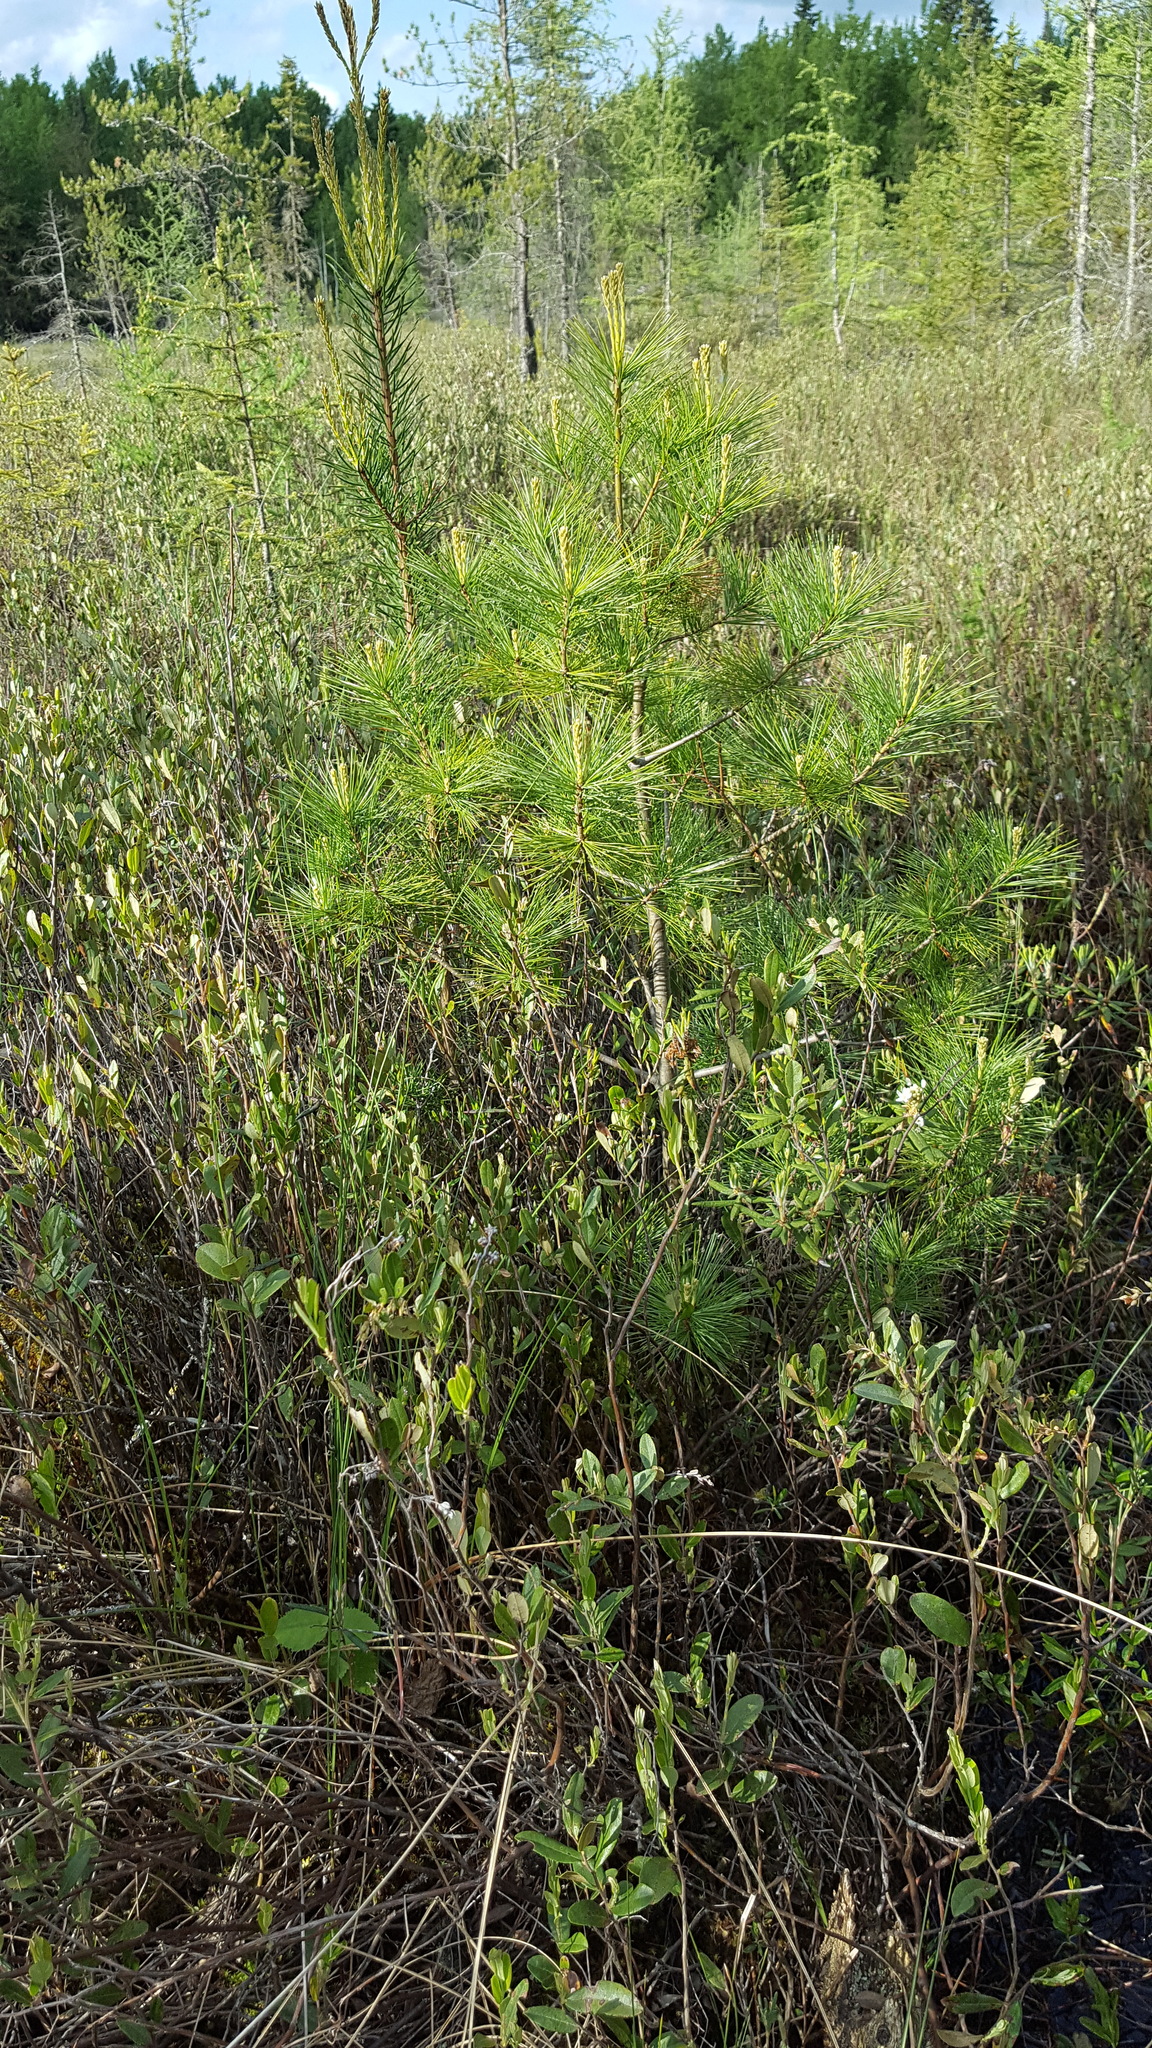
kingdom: Plantae
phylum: Tracheophyta
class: Pinopsida
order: Pinales
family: Pinaceae
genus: Pinus
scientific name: Pinus strobus
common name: Weymouth pine
